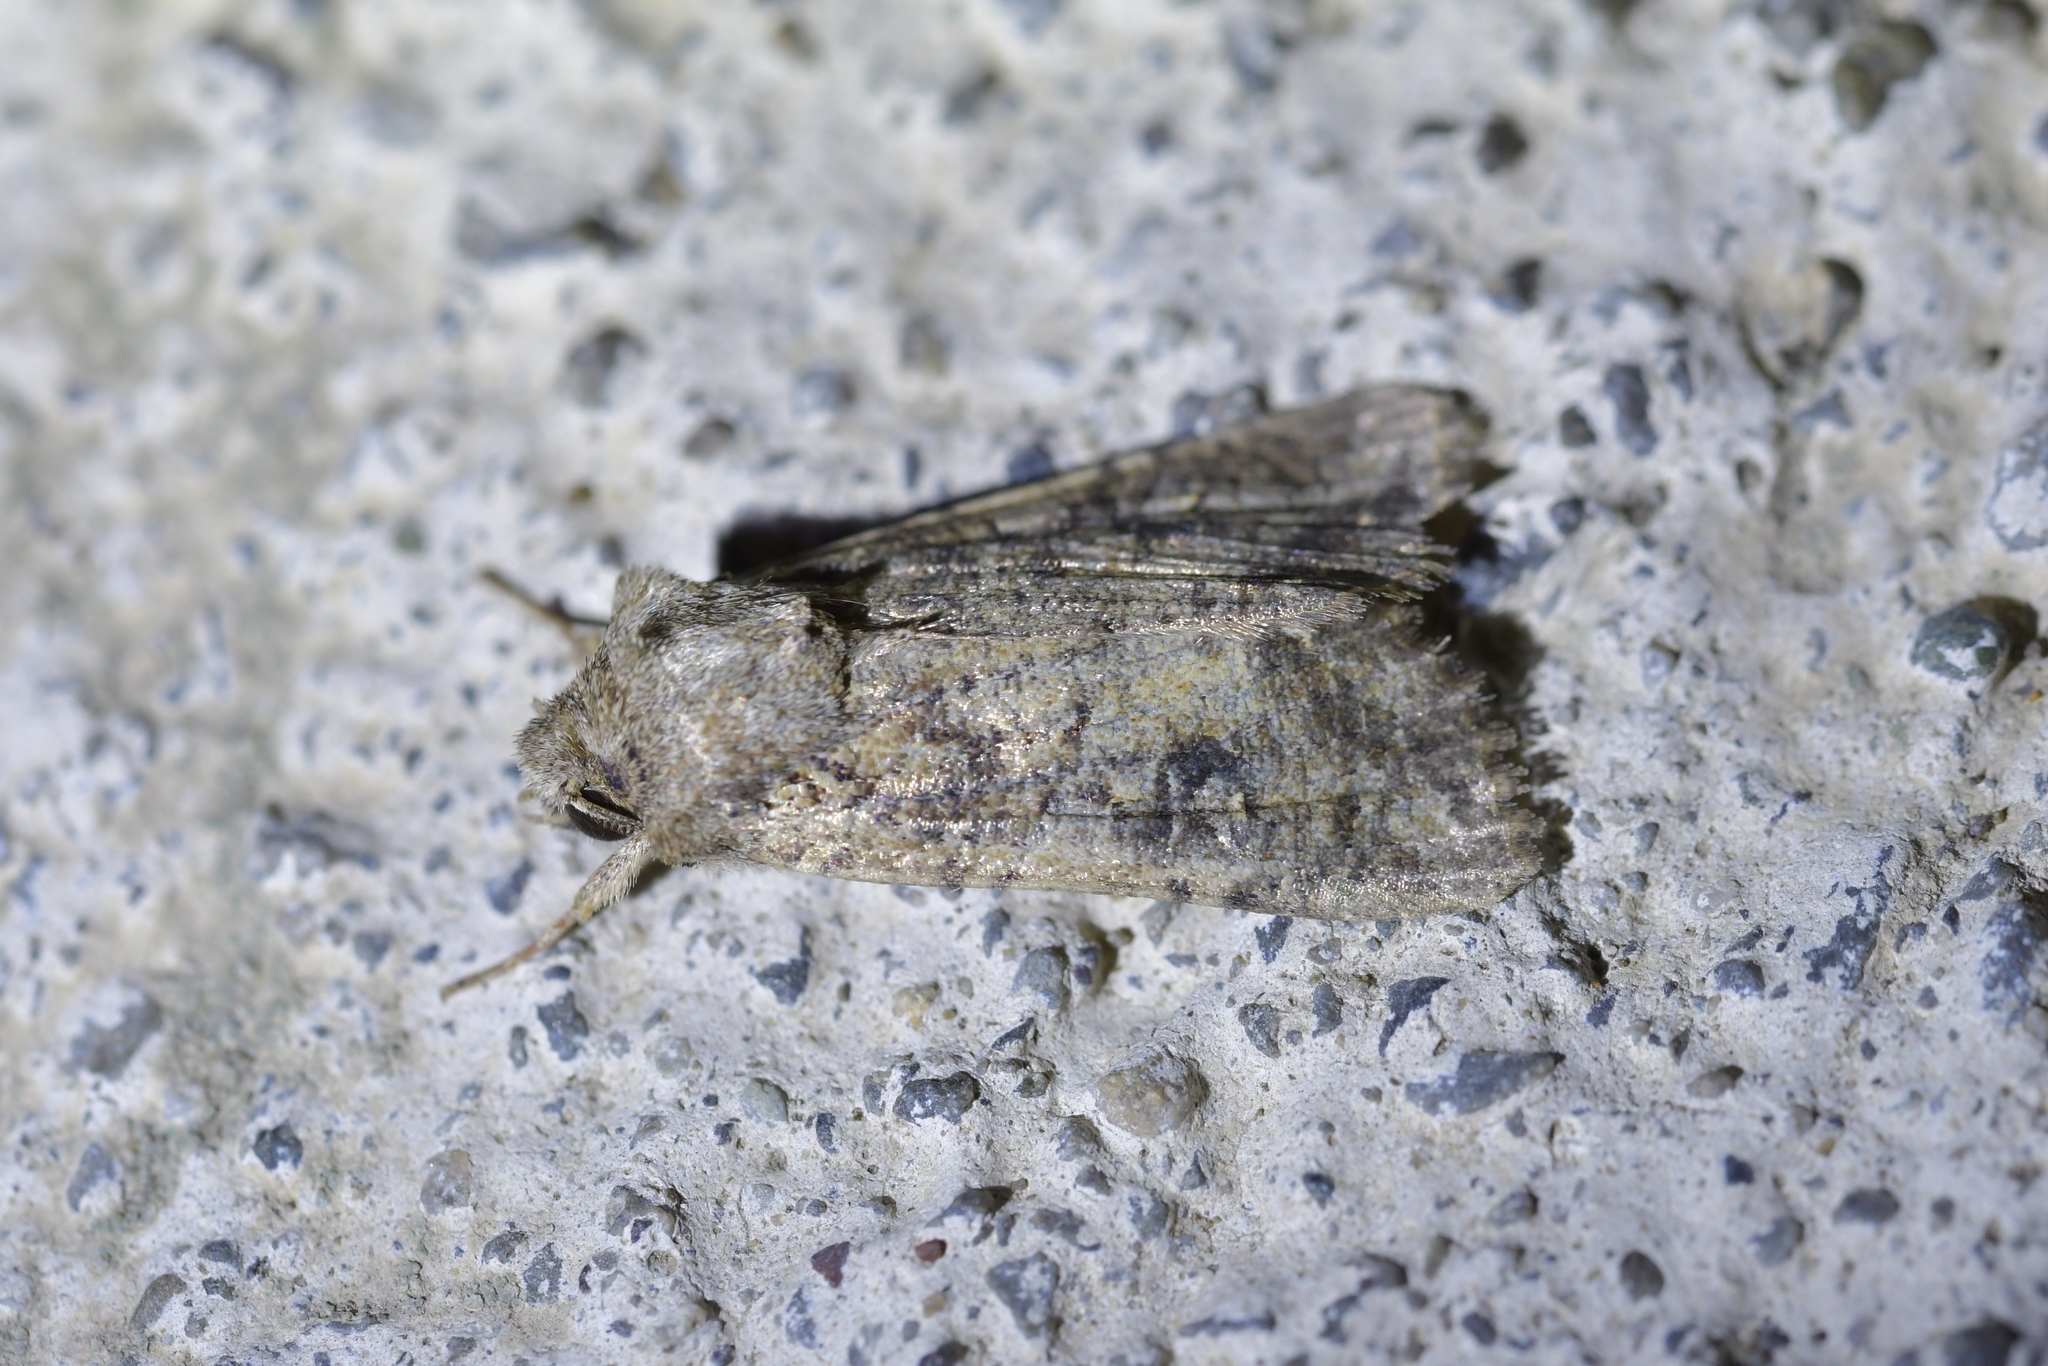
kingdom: Animalia
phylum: Arthropoda
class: Insecta
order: Lepidoptera
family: Noctuidae
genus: Ichneutica
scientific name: Ichneutica morosa
